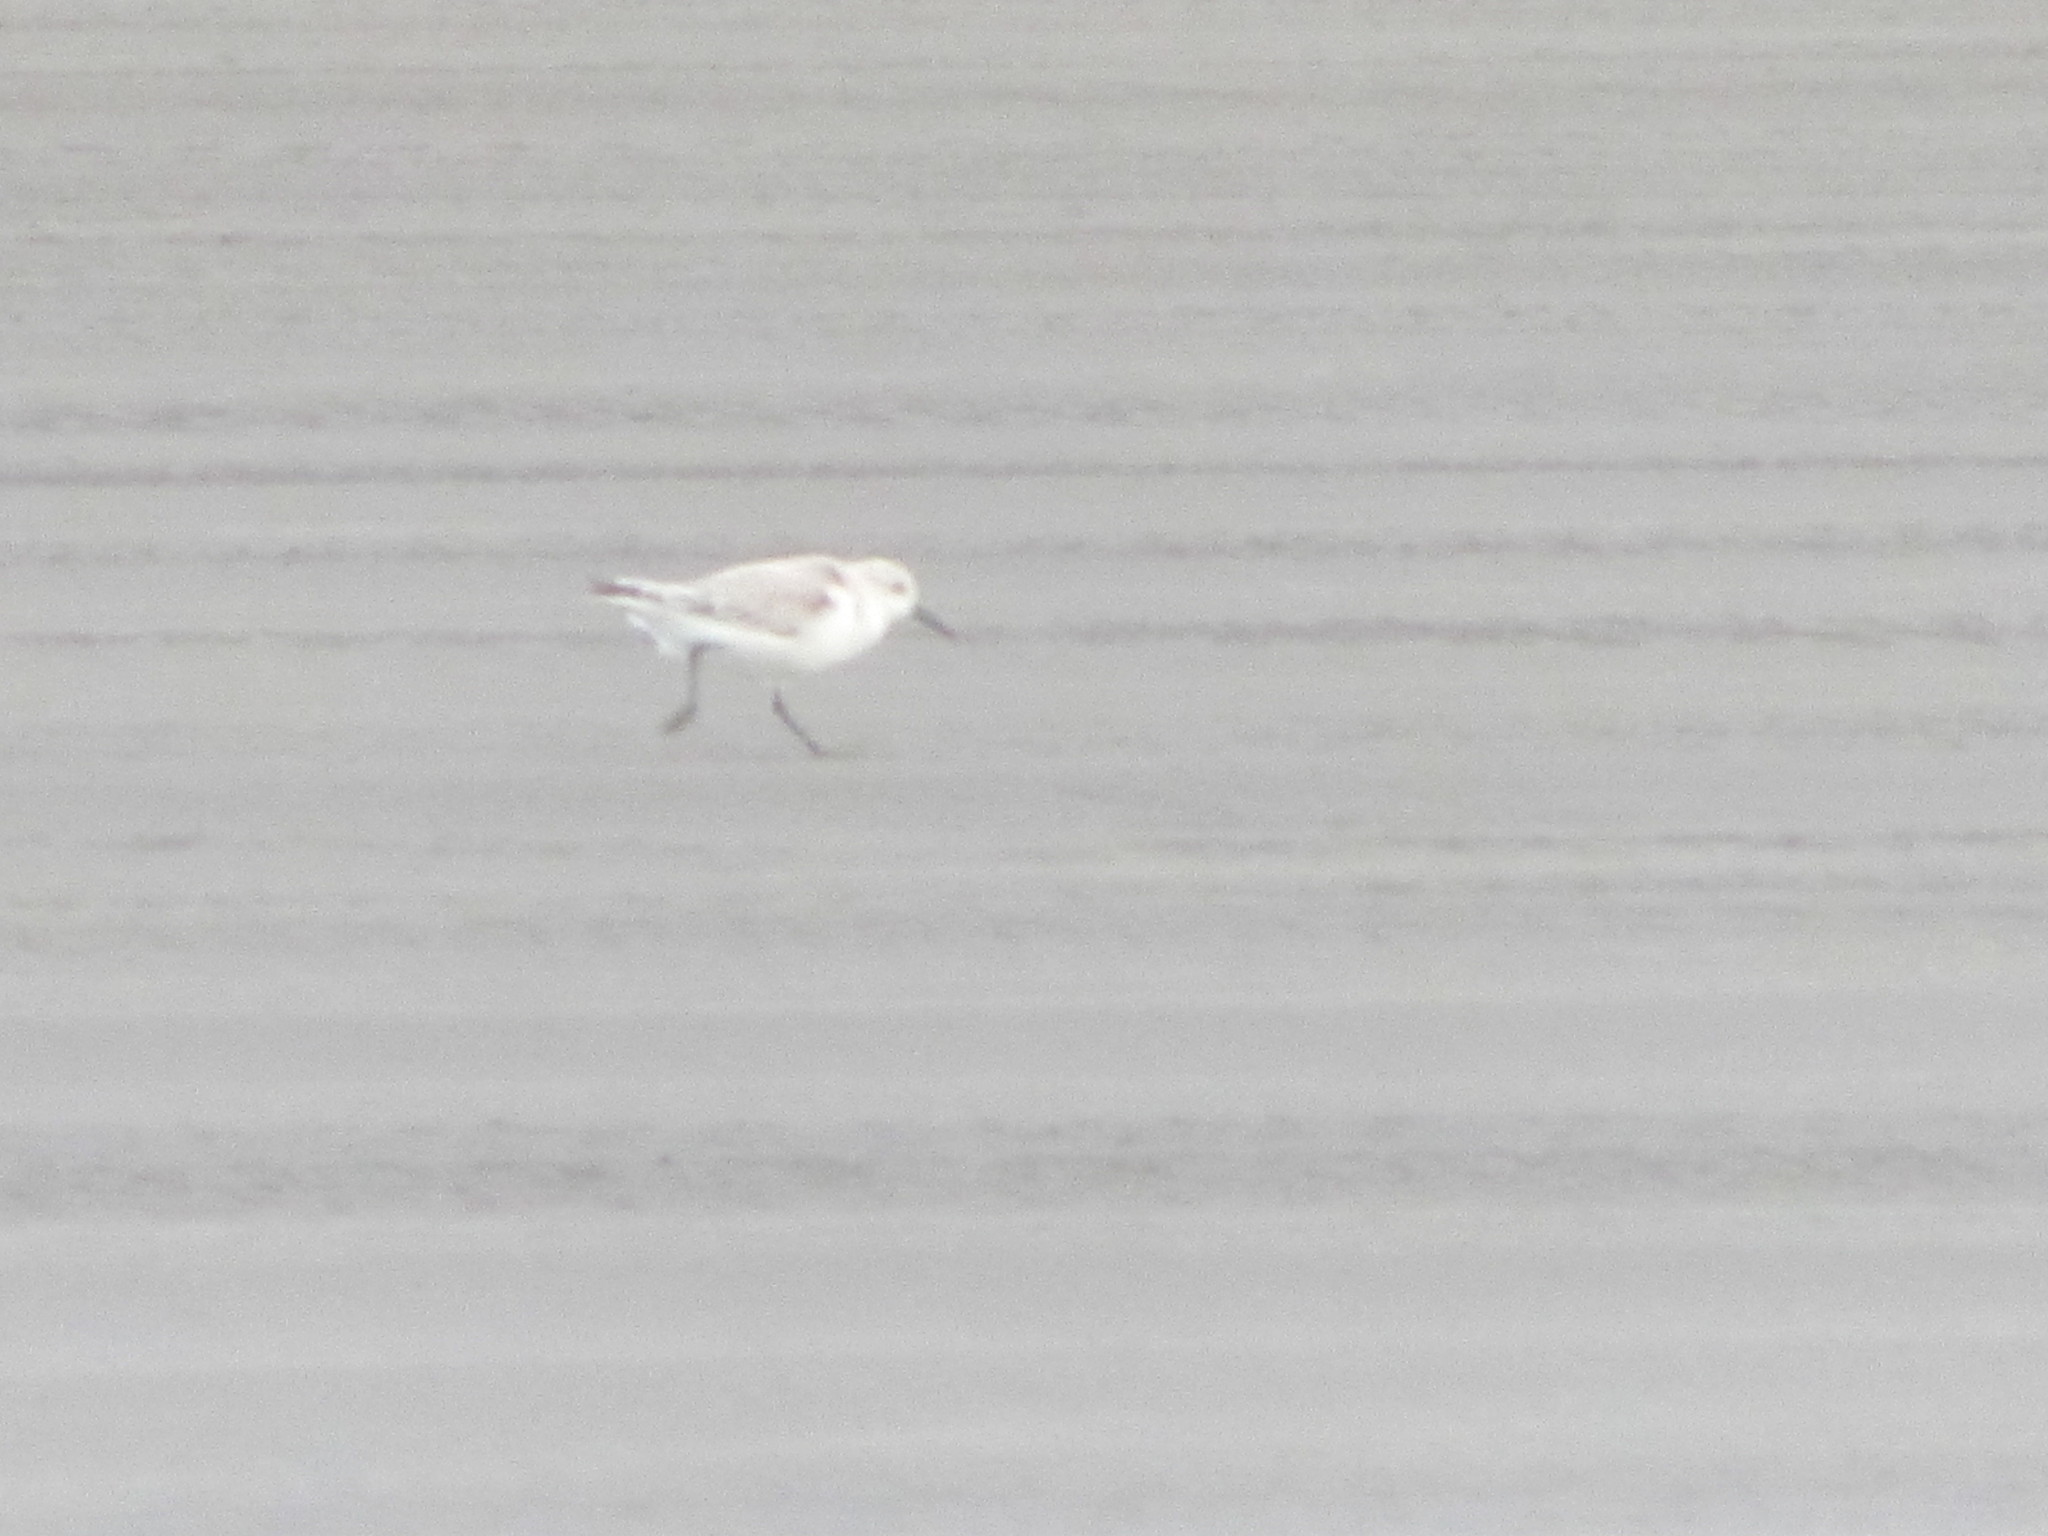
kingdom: Animalia
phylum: Chordata
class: Aves
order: Charadriiformes
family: Scolopacidae
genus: Calidris
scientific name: Calidris alba
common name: Sanderling
